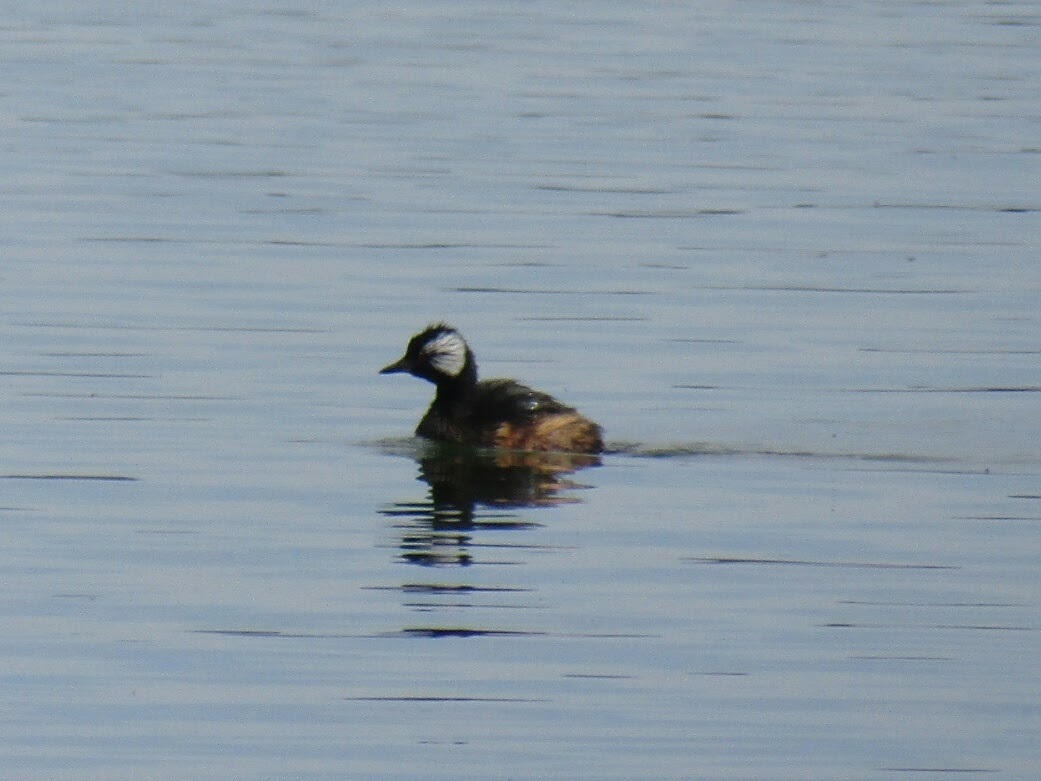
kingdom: Animalia
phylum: Chordata
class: Aves
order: Podicipediformes
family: Podicipedidae
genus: Rollandia
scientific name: Rollandia rolland
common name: White-tufted grebe
